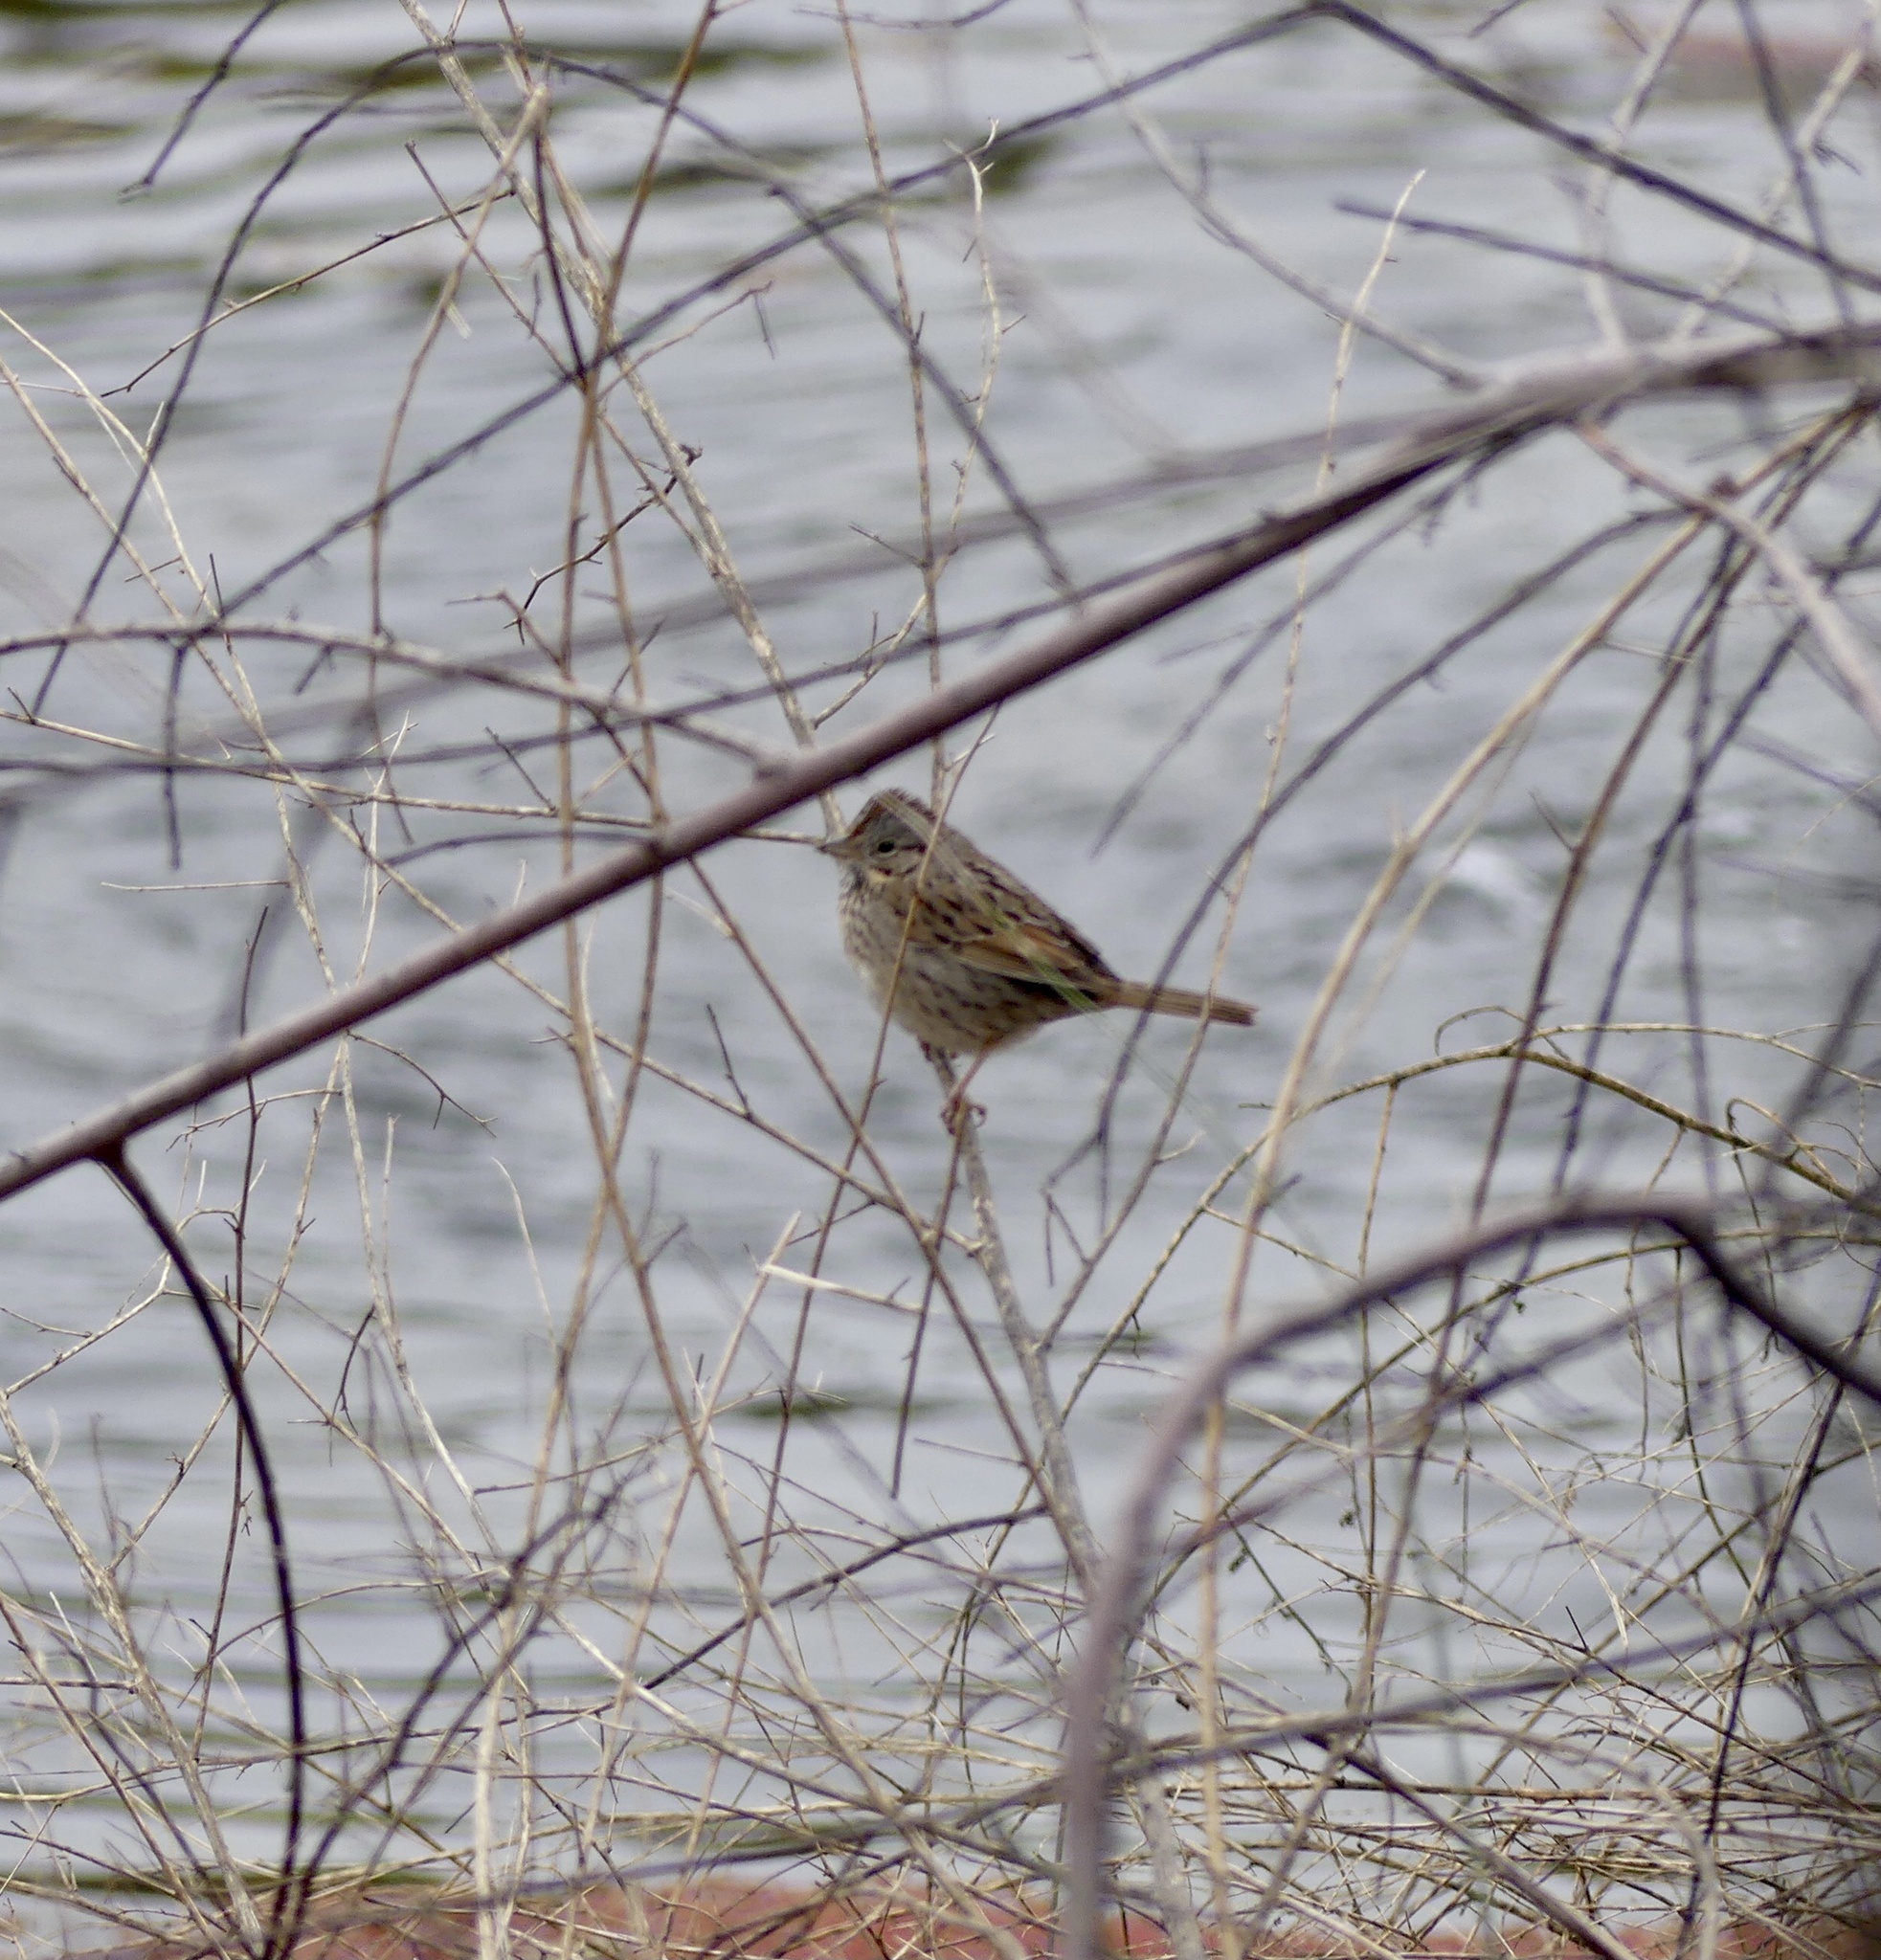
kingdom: Animalia
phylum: Chordata
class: Aves
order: Passeriformes
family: Passerellidae
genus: Melospiza
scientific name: Melospiza lincolnii
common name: Lincoln's sparrow
